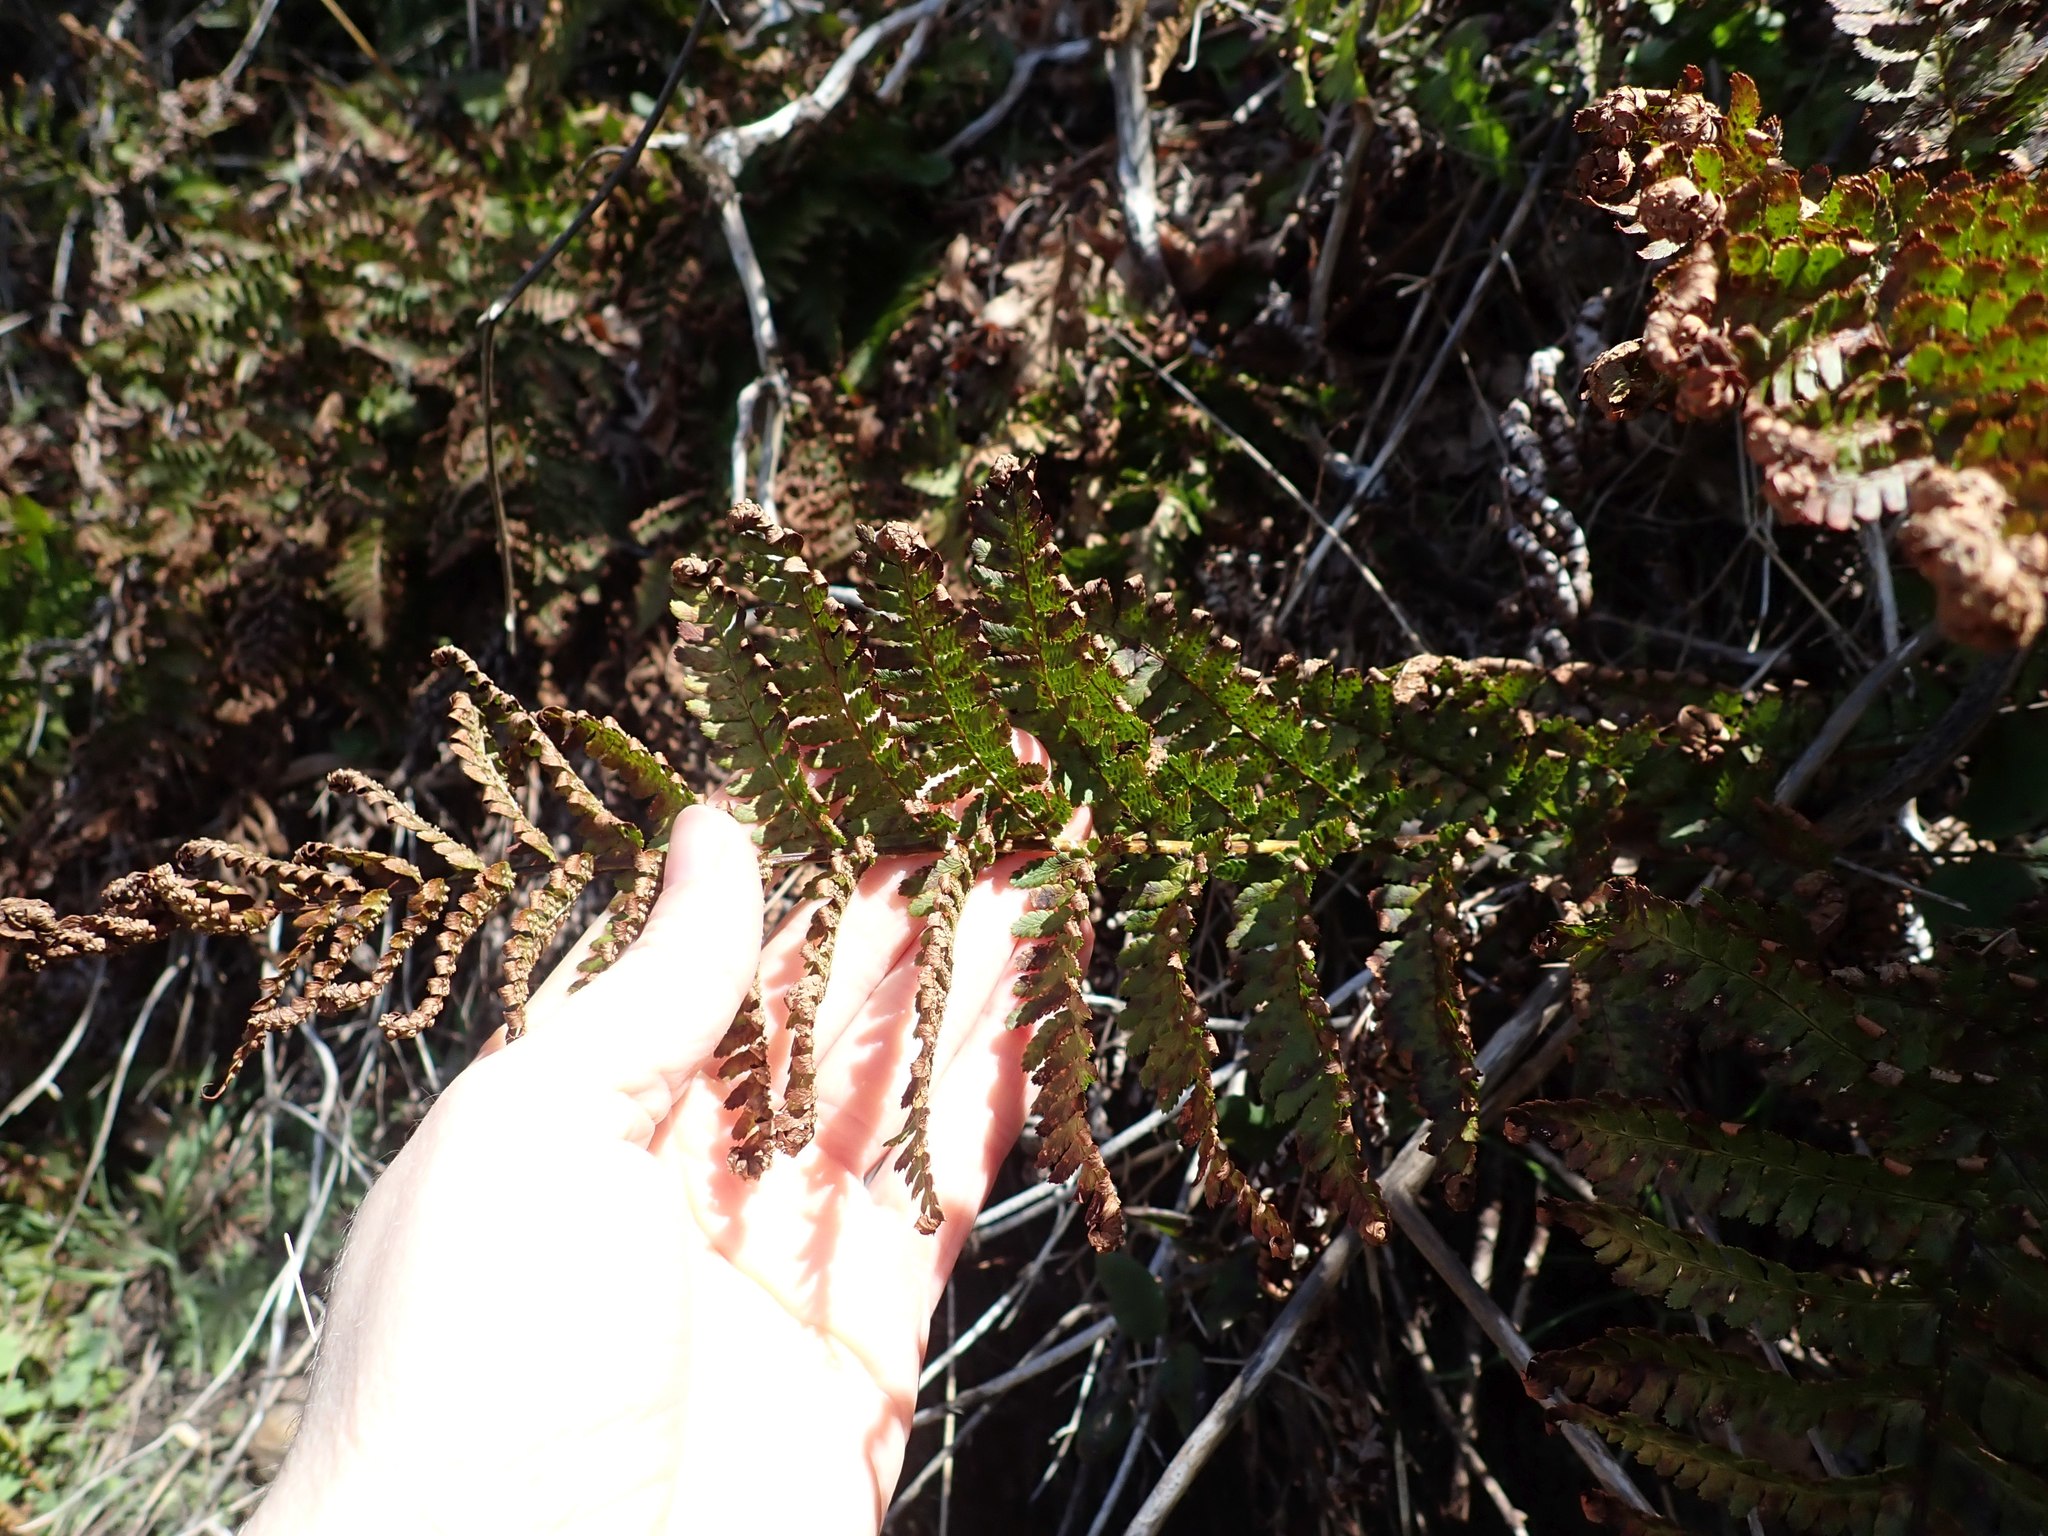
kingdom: Plantae
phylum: Tracheophyta
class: Polypodiopsida
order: Polypodiales
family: Dryopteridaceae
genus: Dryopteris
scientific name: Dryopteris arguta
